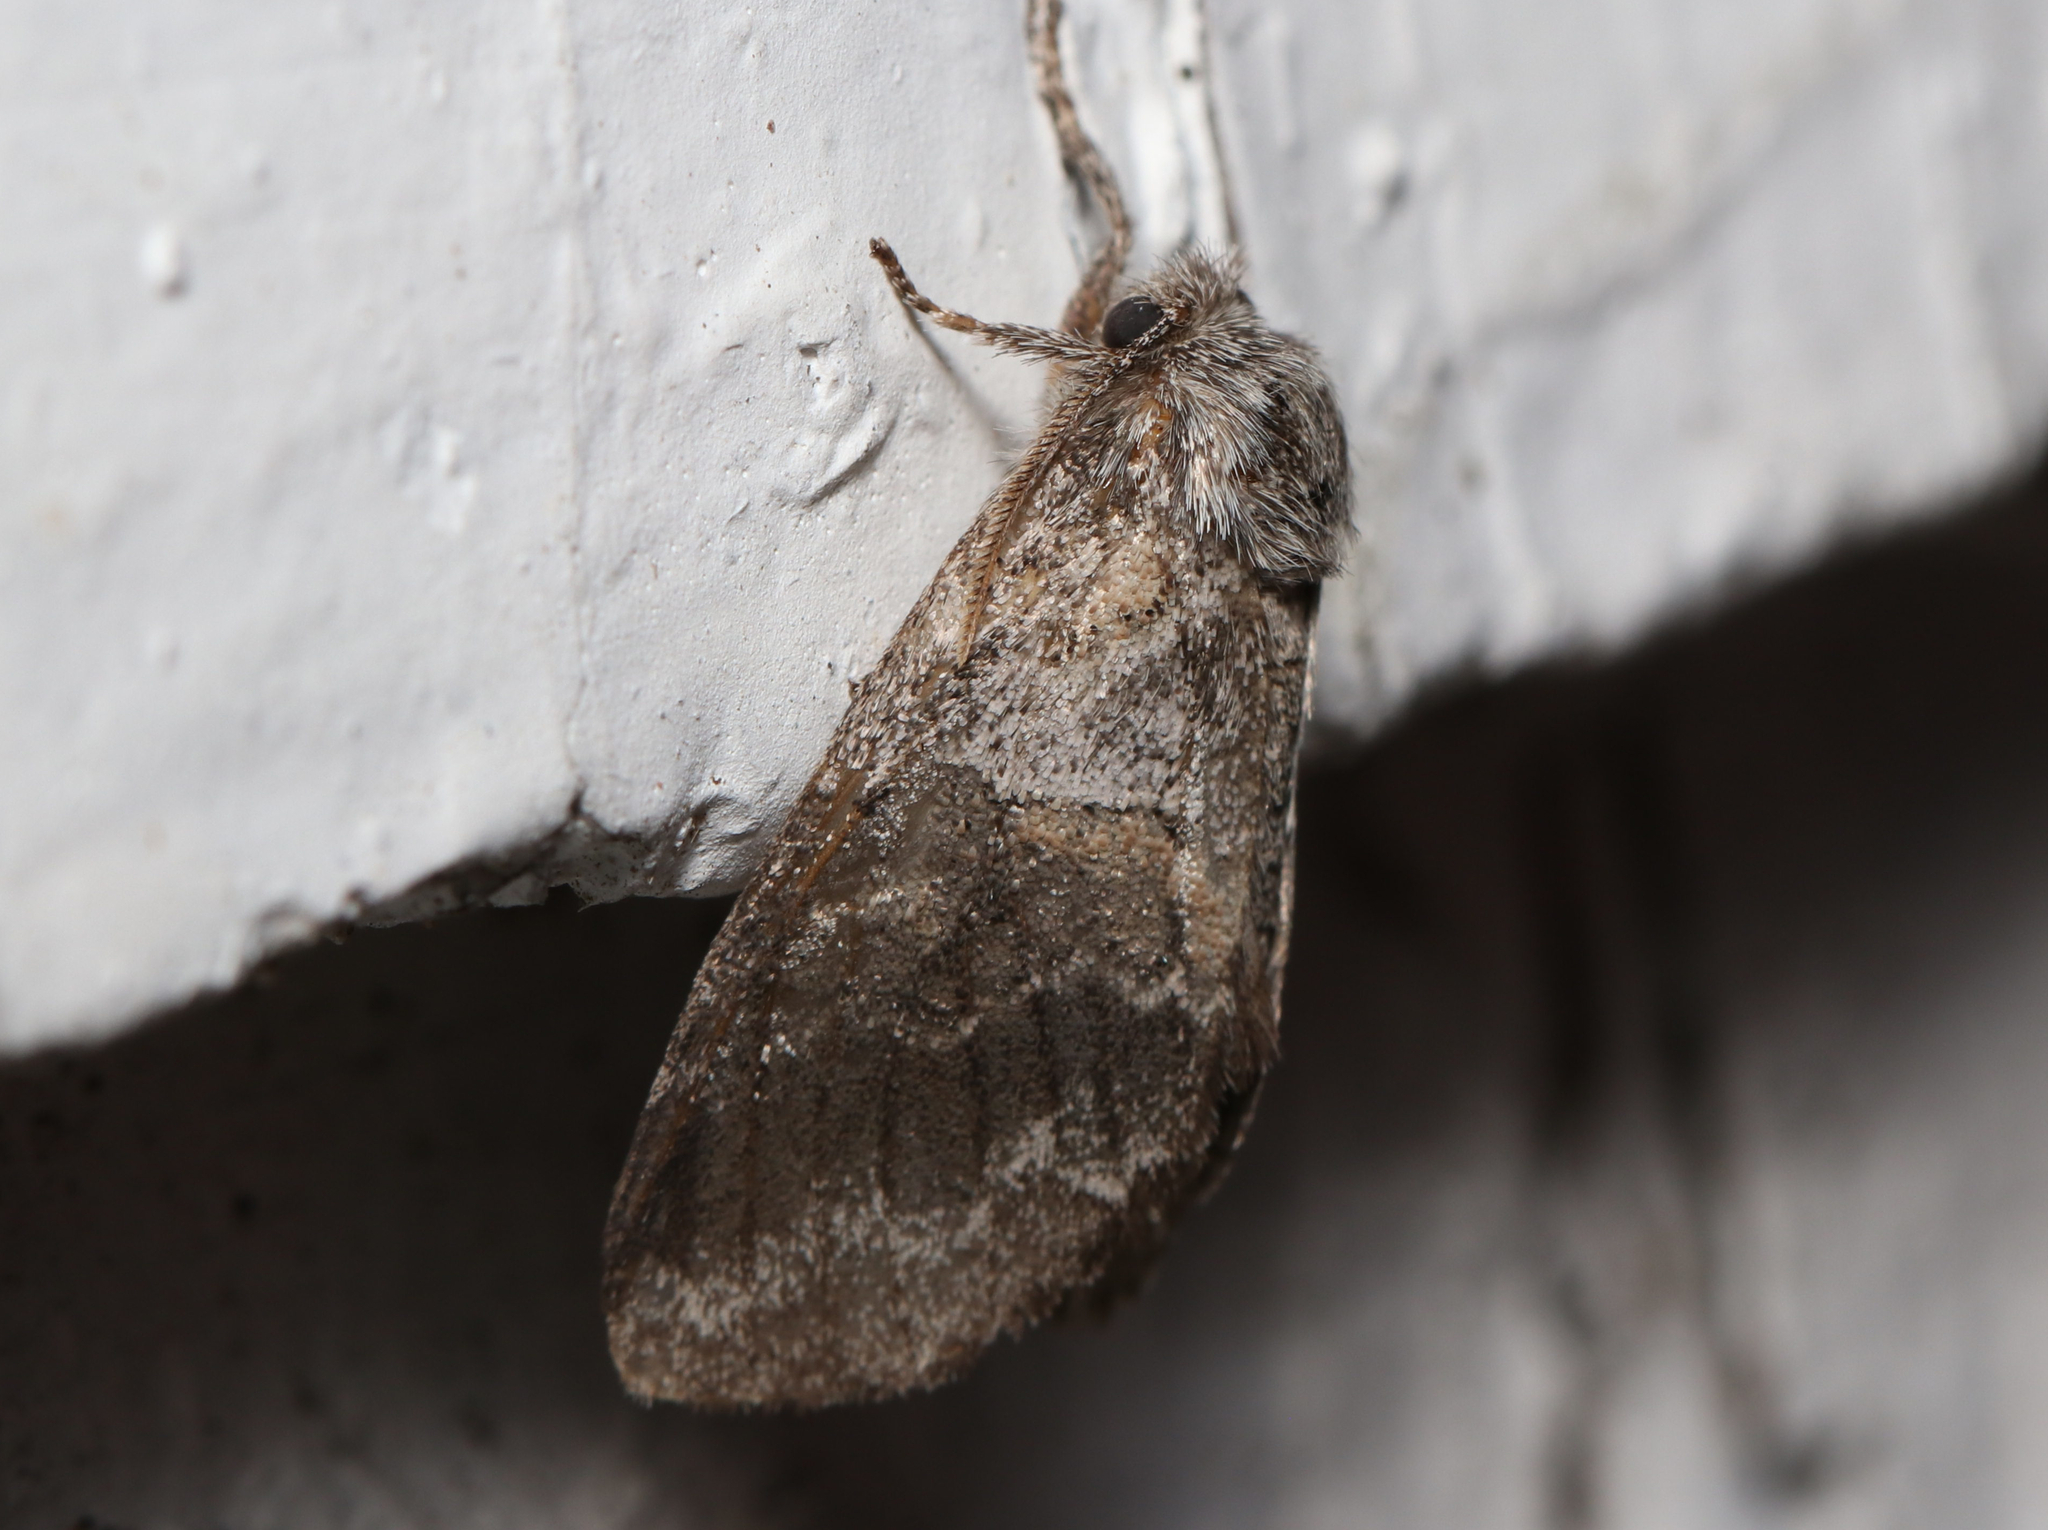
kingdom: Animalia
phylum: Arthropoda
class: Insecta
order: Lepidoptera
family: Notodontidae
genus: Gluphisia
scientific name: Gluphisia septentrionis
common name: Common gluphisia
